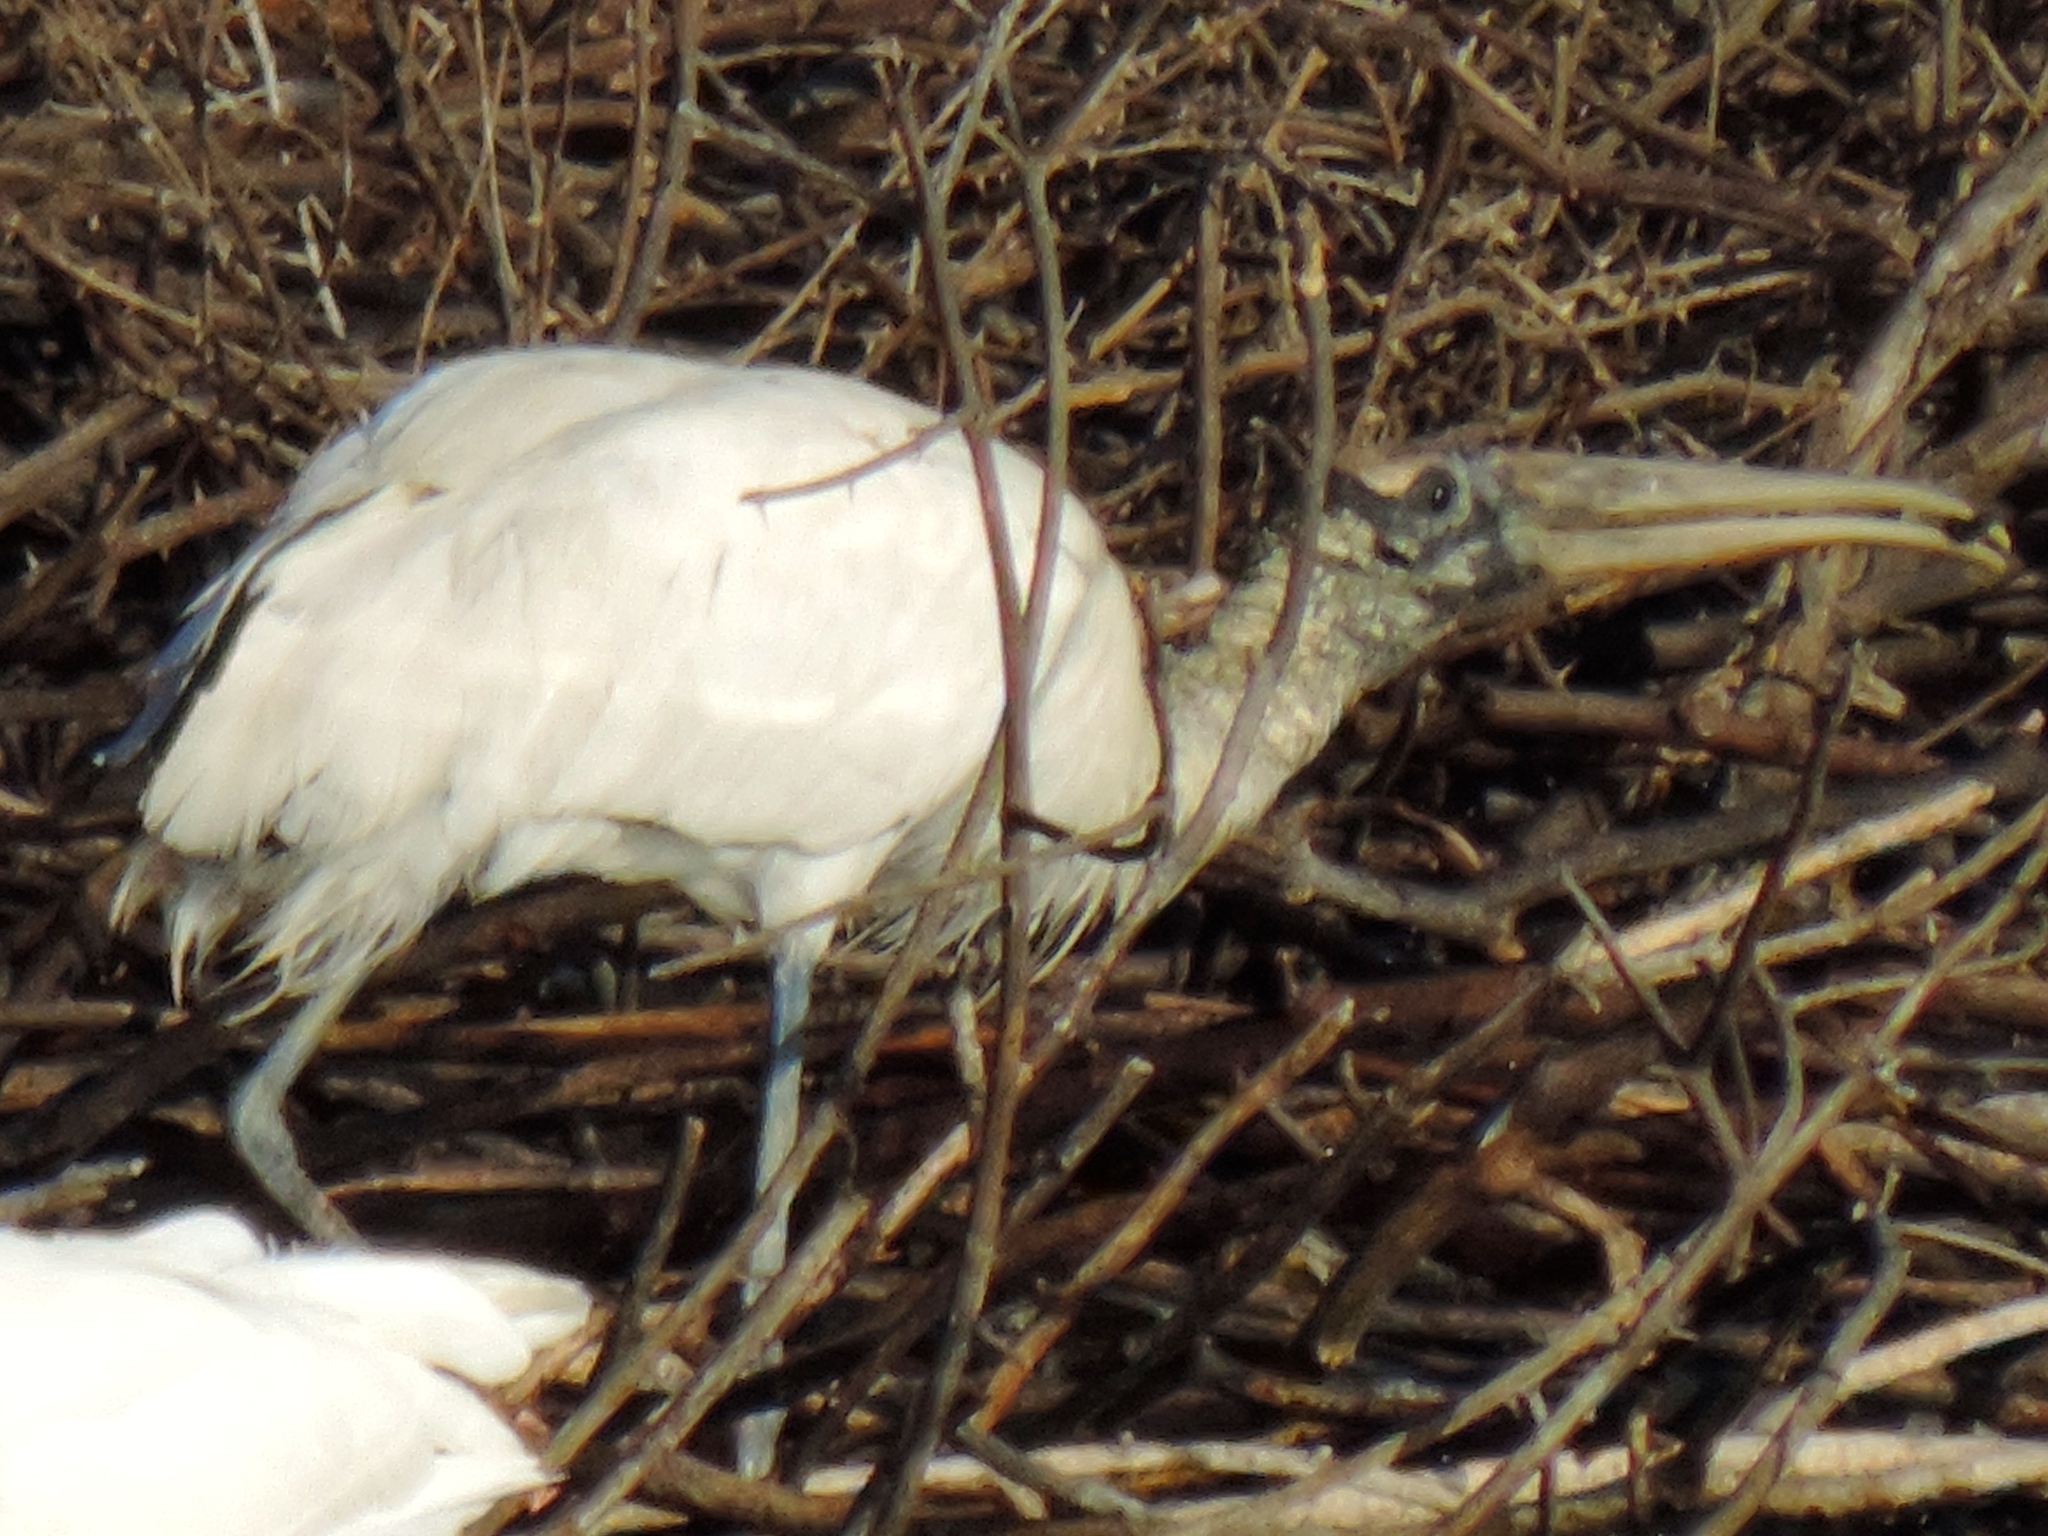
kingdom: Animalia
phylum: Chordata
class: Aves
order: Ciconiiformes
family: Ciconiidae
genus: Mycteria
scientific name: Mycteria americana
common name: Wood stork
